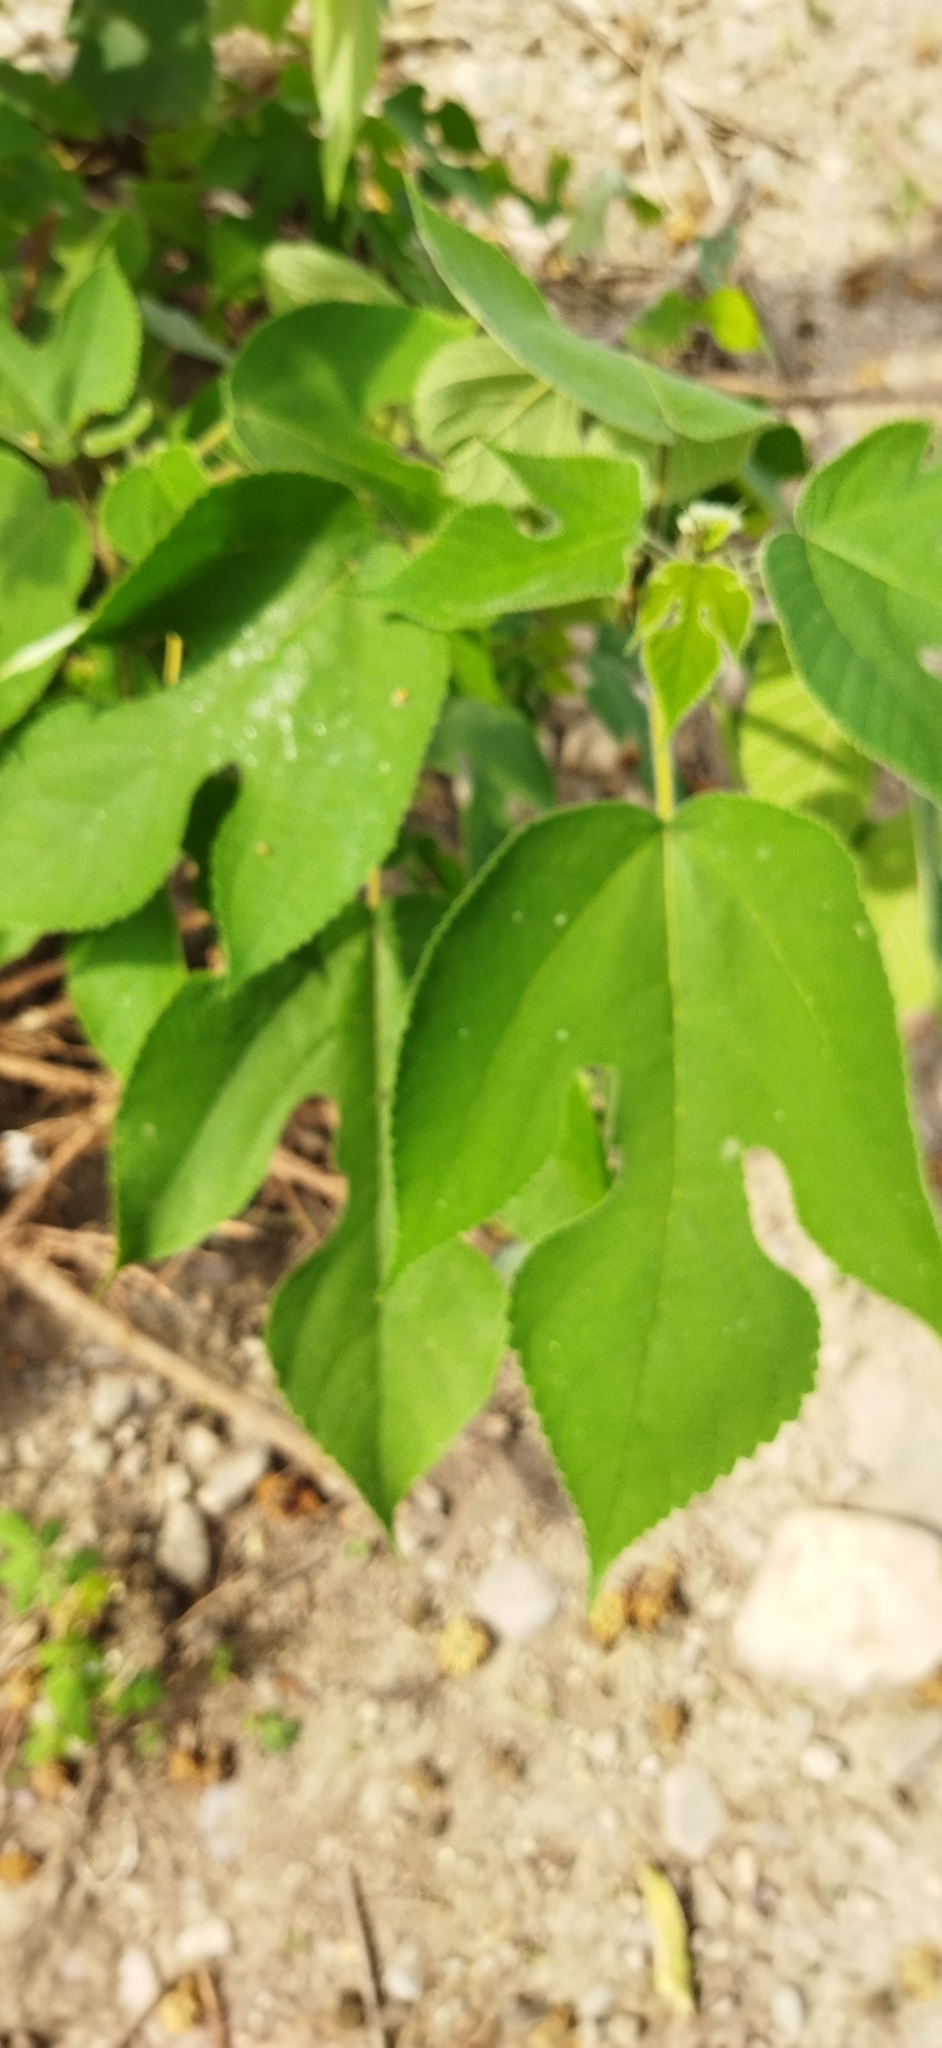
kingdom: Plantae
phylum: Tracheophyta
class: Magnoliopsida
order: Rosales
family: Moraceae
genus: Broussonetia
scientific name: Broussonetia papyrifera
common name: Paper mulberry
